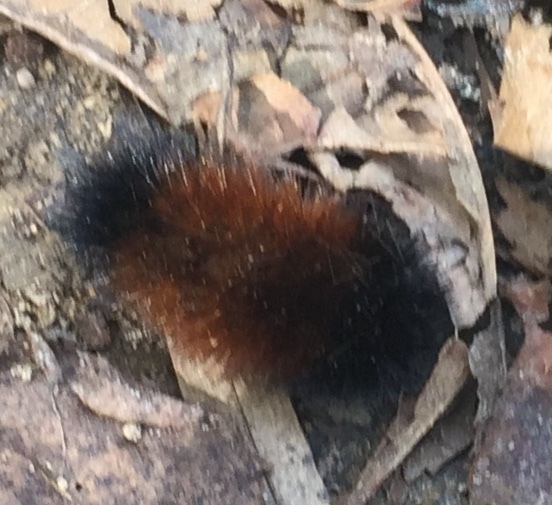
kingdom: Animalia
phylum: Arthropoda
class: Insecta
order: Lepidoptera
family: Erebidae
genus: Pyrrharctia
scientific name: Pyrrharctia isabella
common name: Isabella tiger moth
